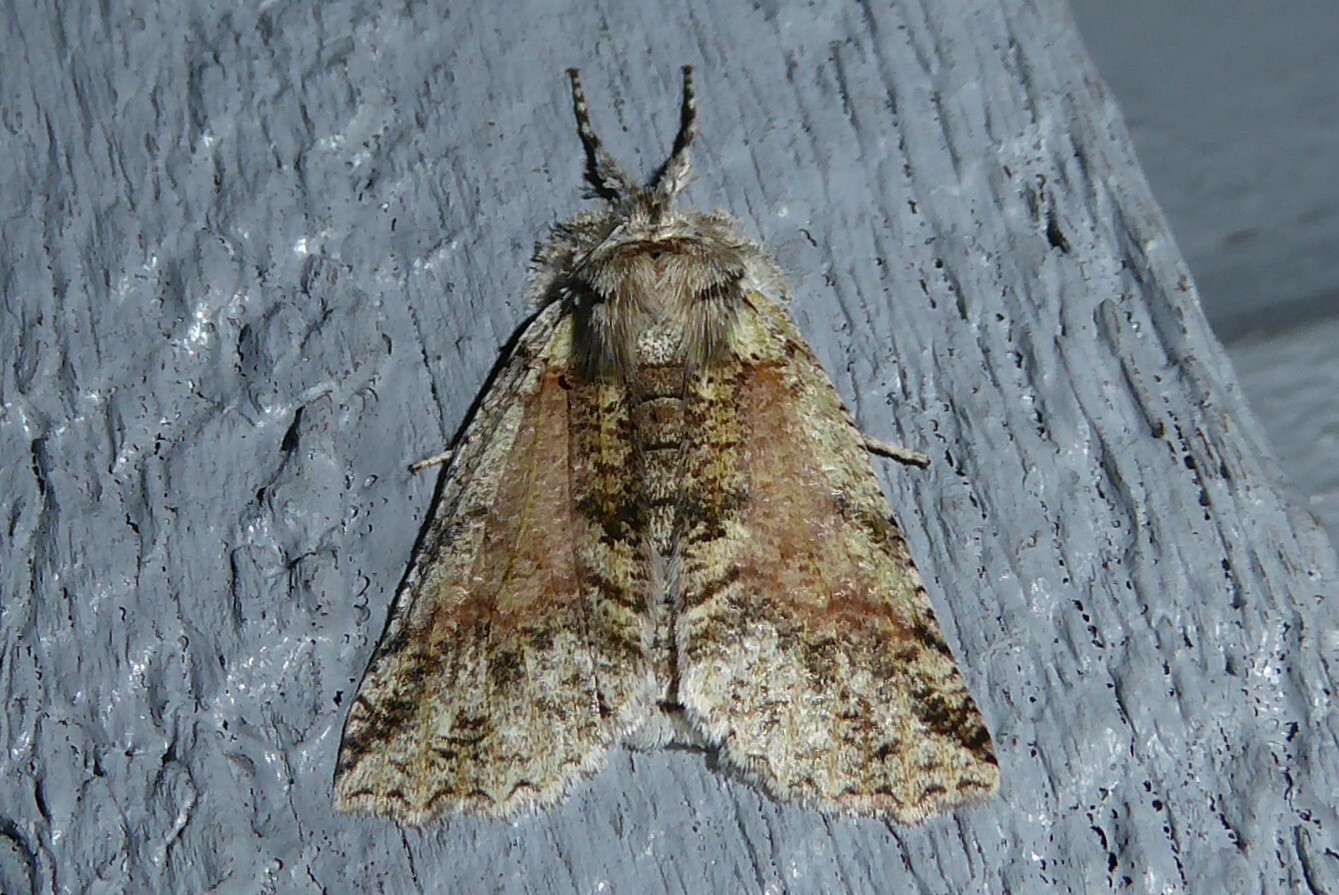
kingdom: Animalia
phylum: Arthropoda
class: Insecta
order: Lepidoptera
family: Geometridae
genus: Declana
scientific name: Declana floccosa
